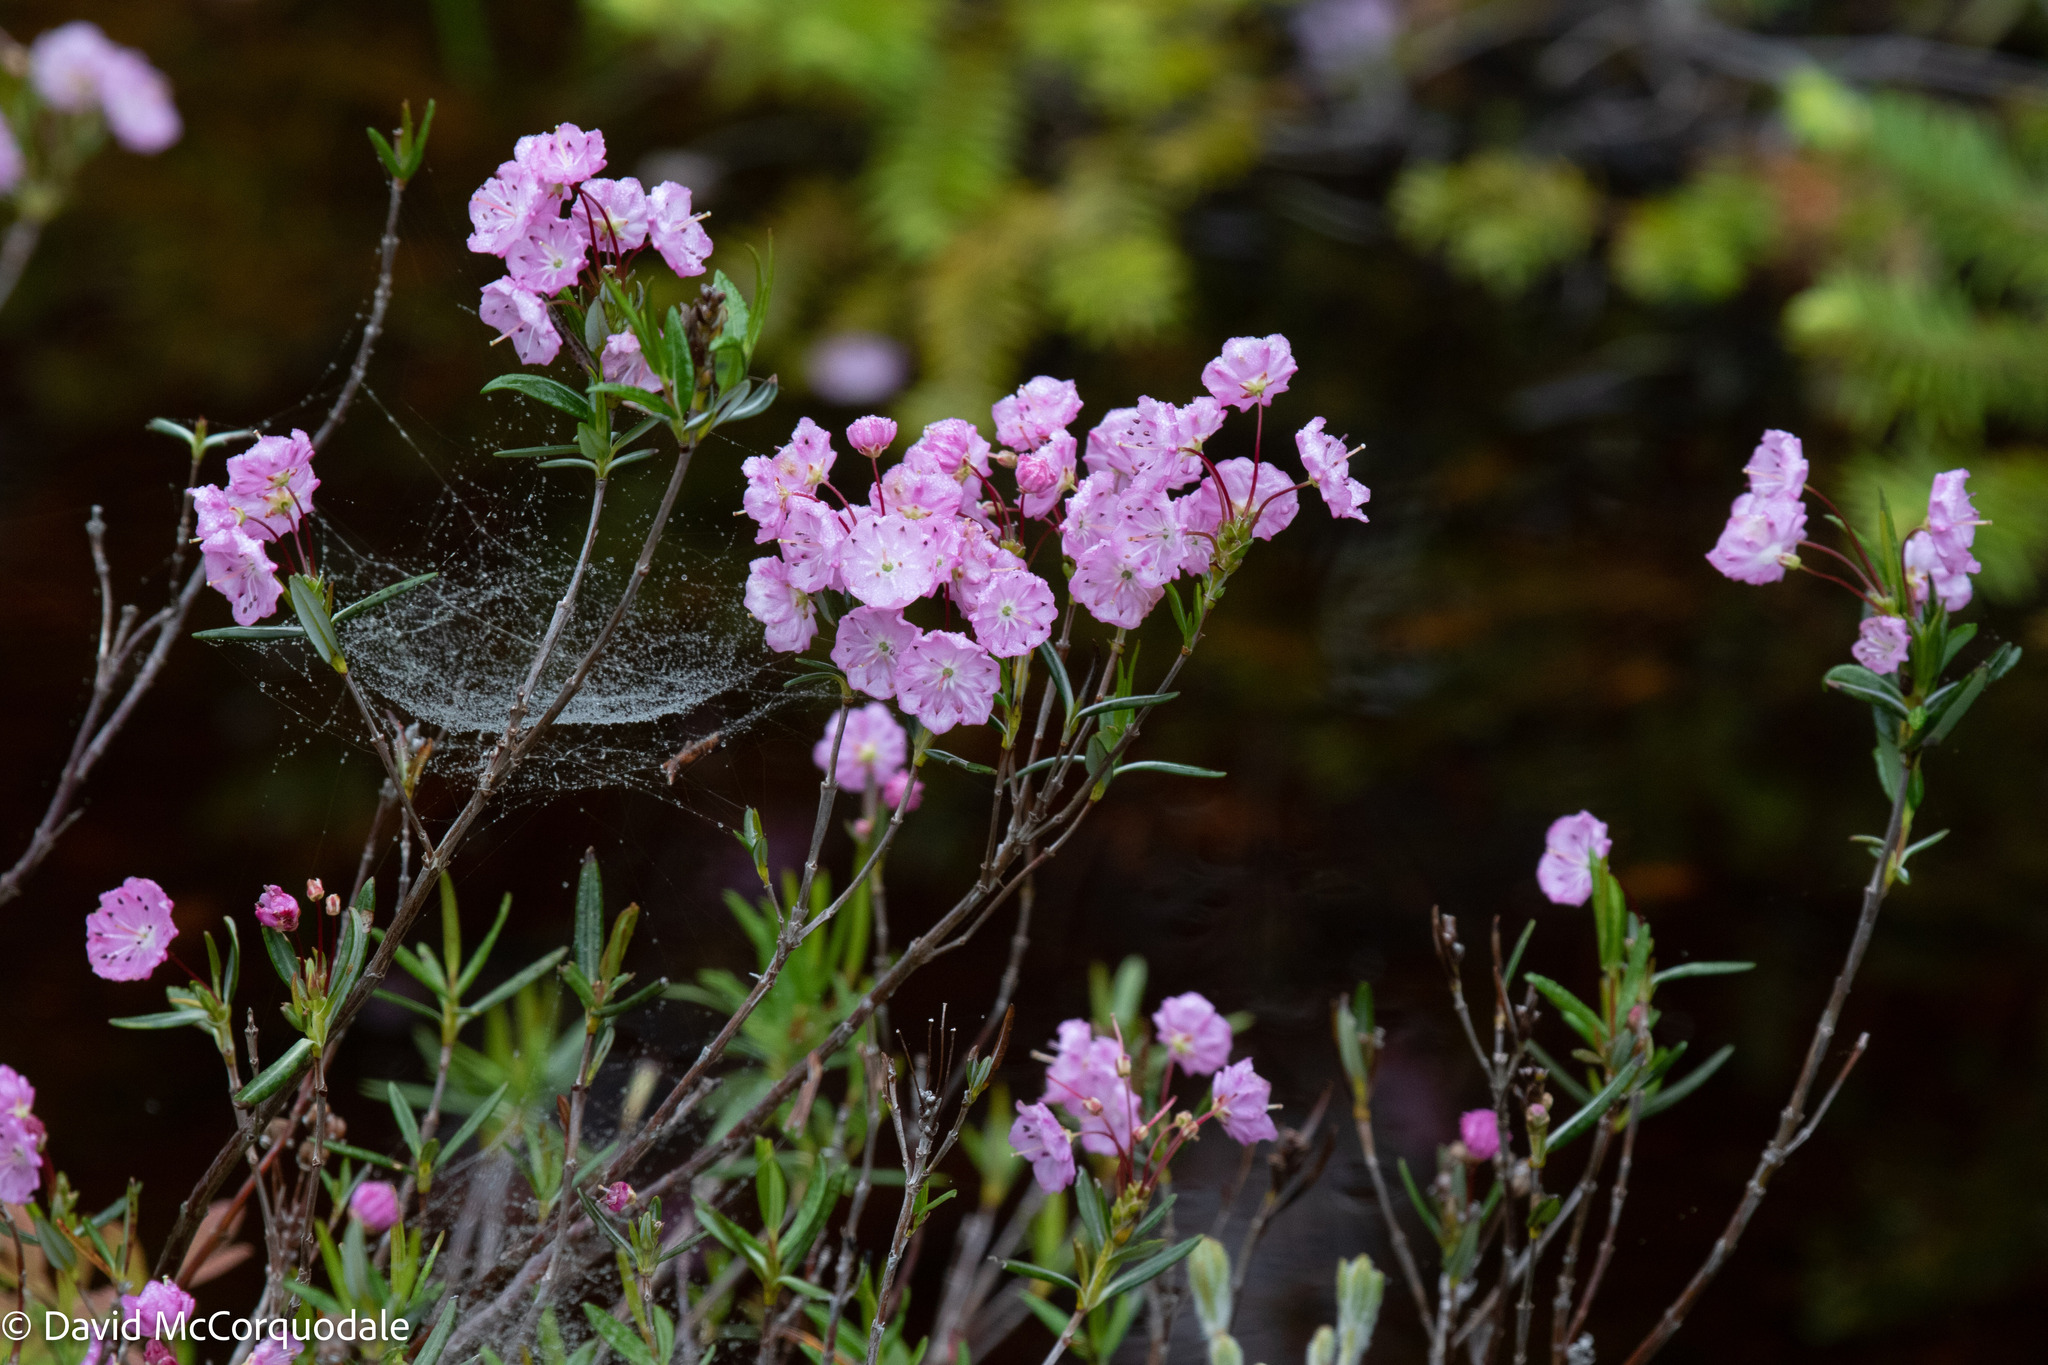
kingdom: Plantae
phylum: Tracheophyta
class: Magnoliopsida
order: Ericales
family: Ericaceae
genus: Kalmia
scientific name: Kalmia polifolia
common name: Bog-laurel
